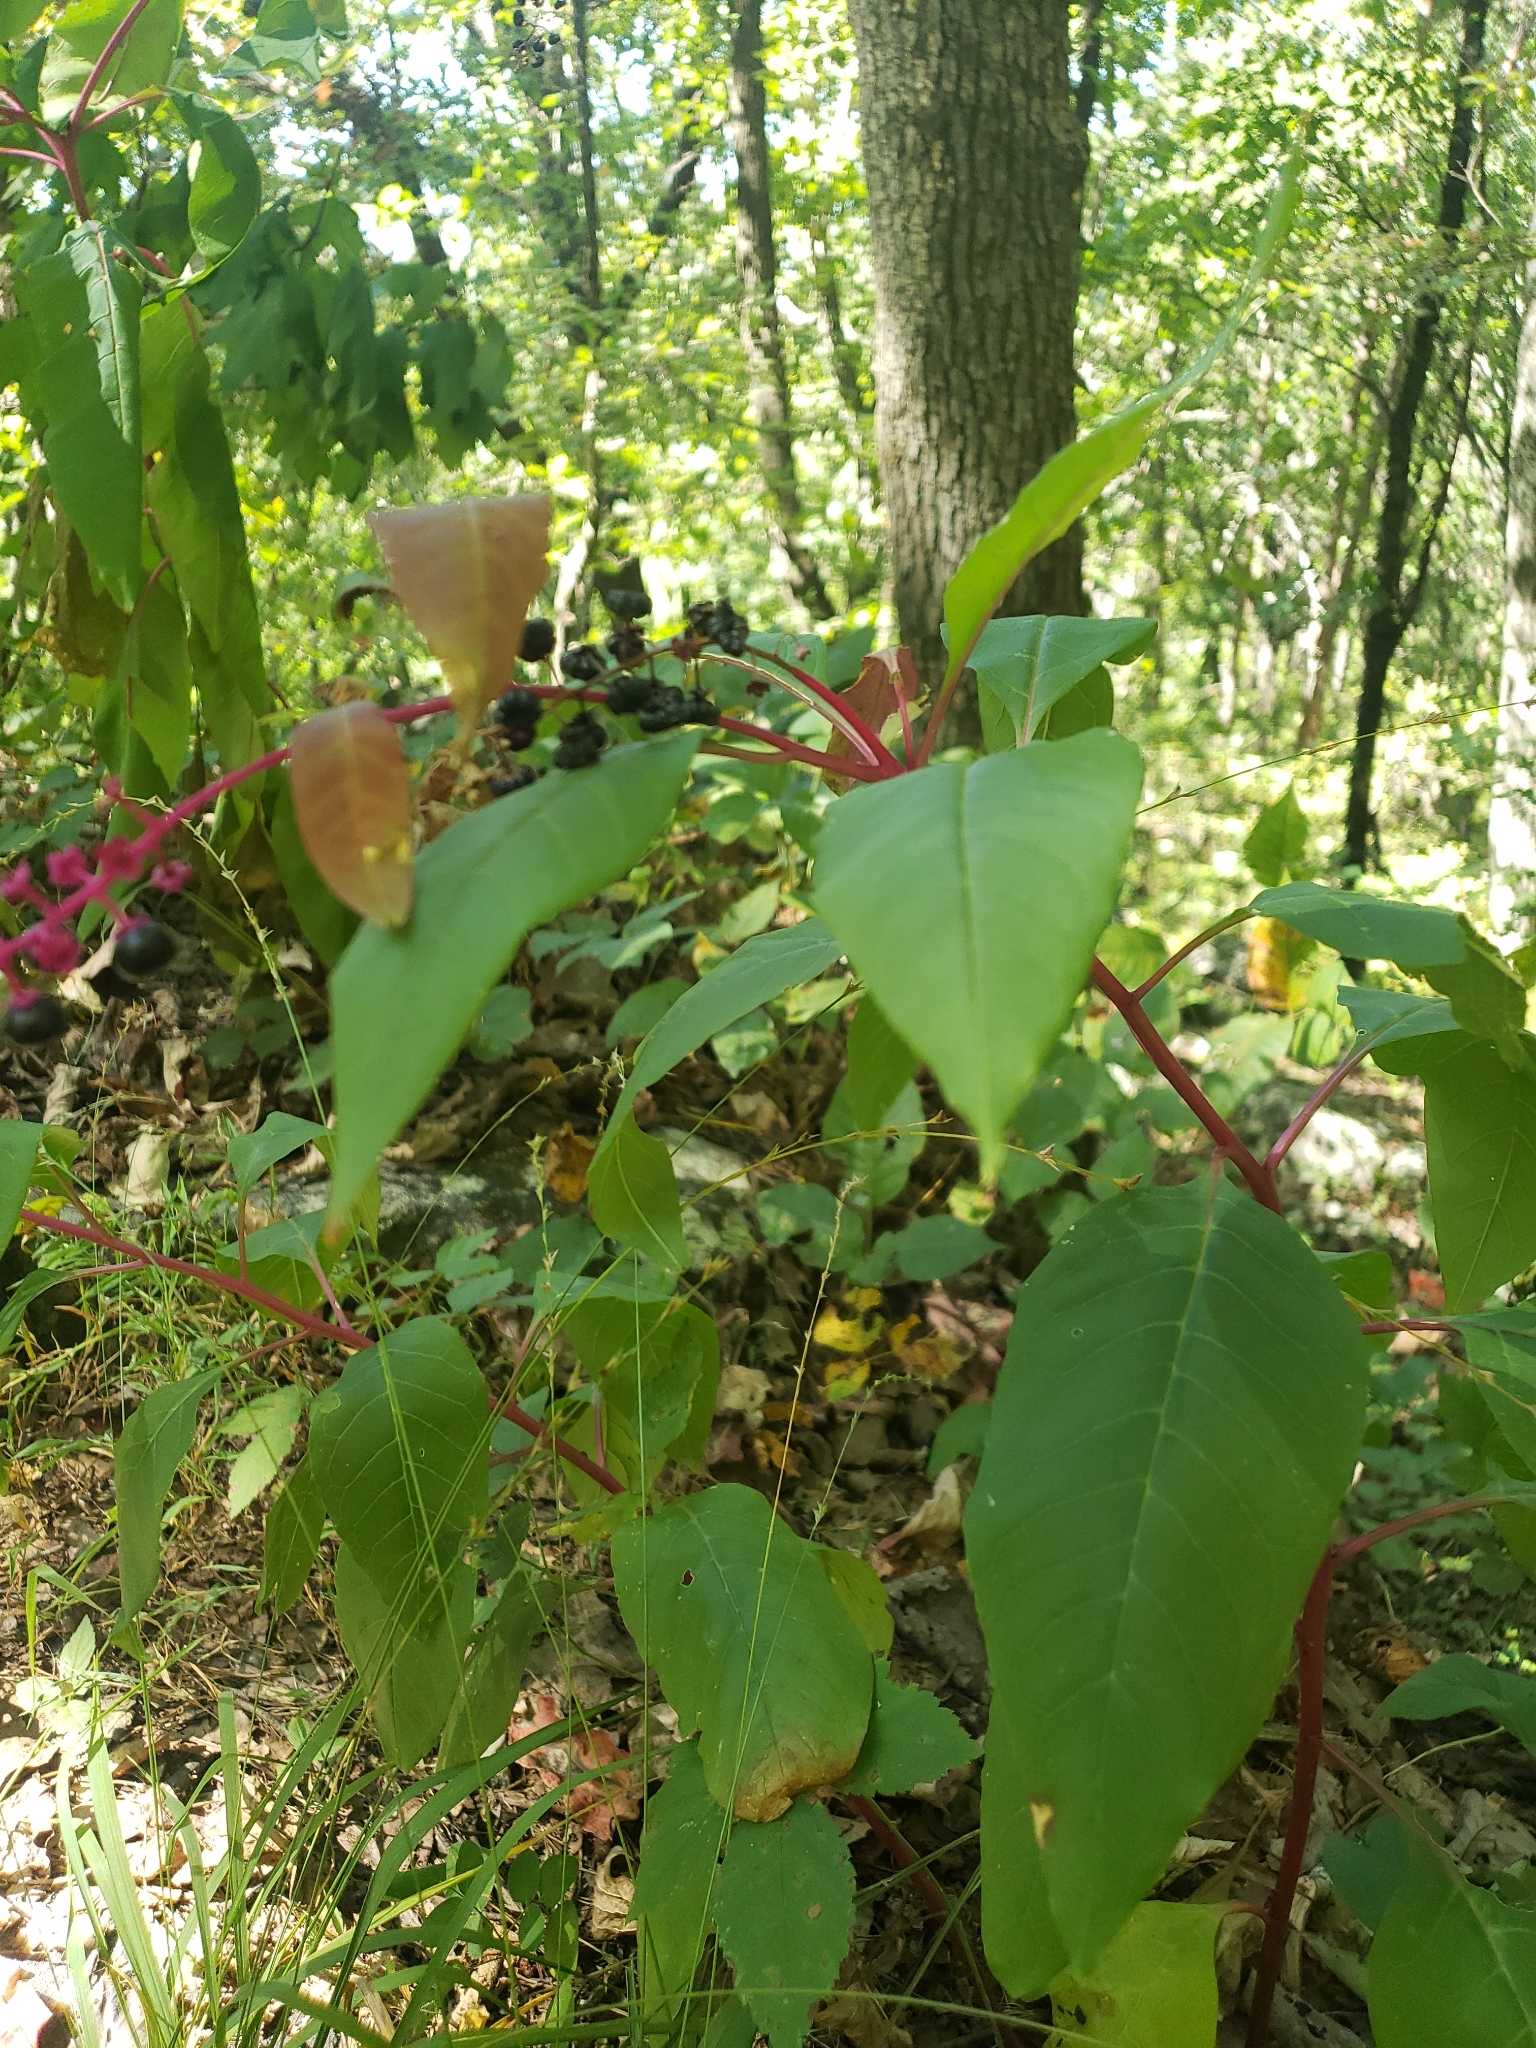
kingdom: Plantae
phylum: Tracheophyta
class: Magnoliopsida
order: Caryophyllales
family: Phytolaccaceae
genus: Phytolacca
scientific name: Phytolacca americana
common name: American pokeweed
